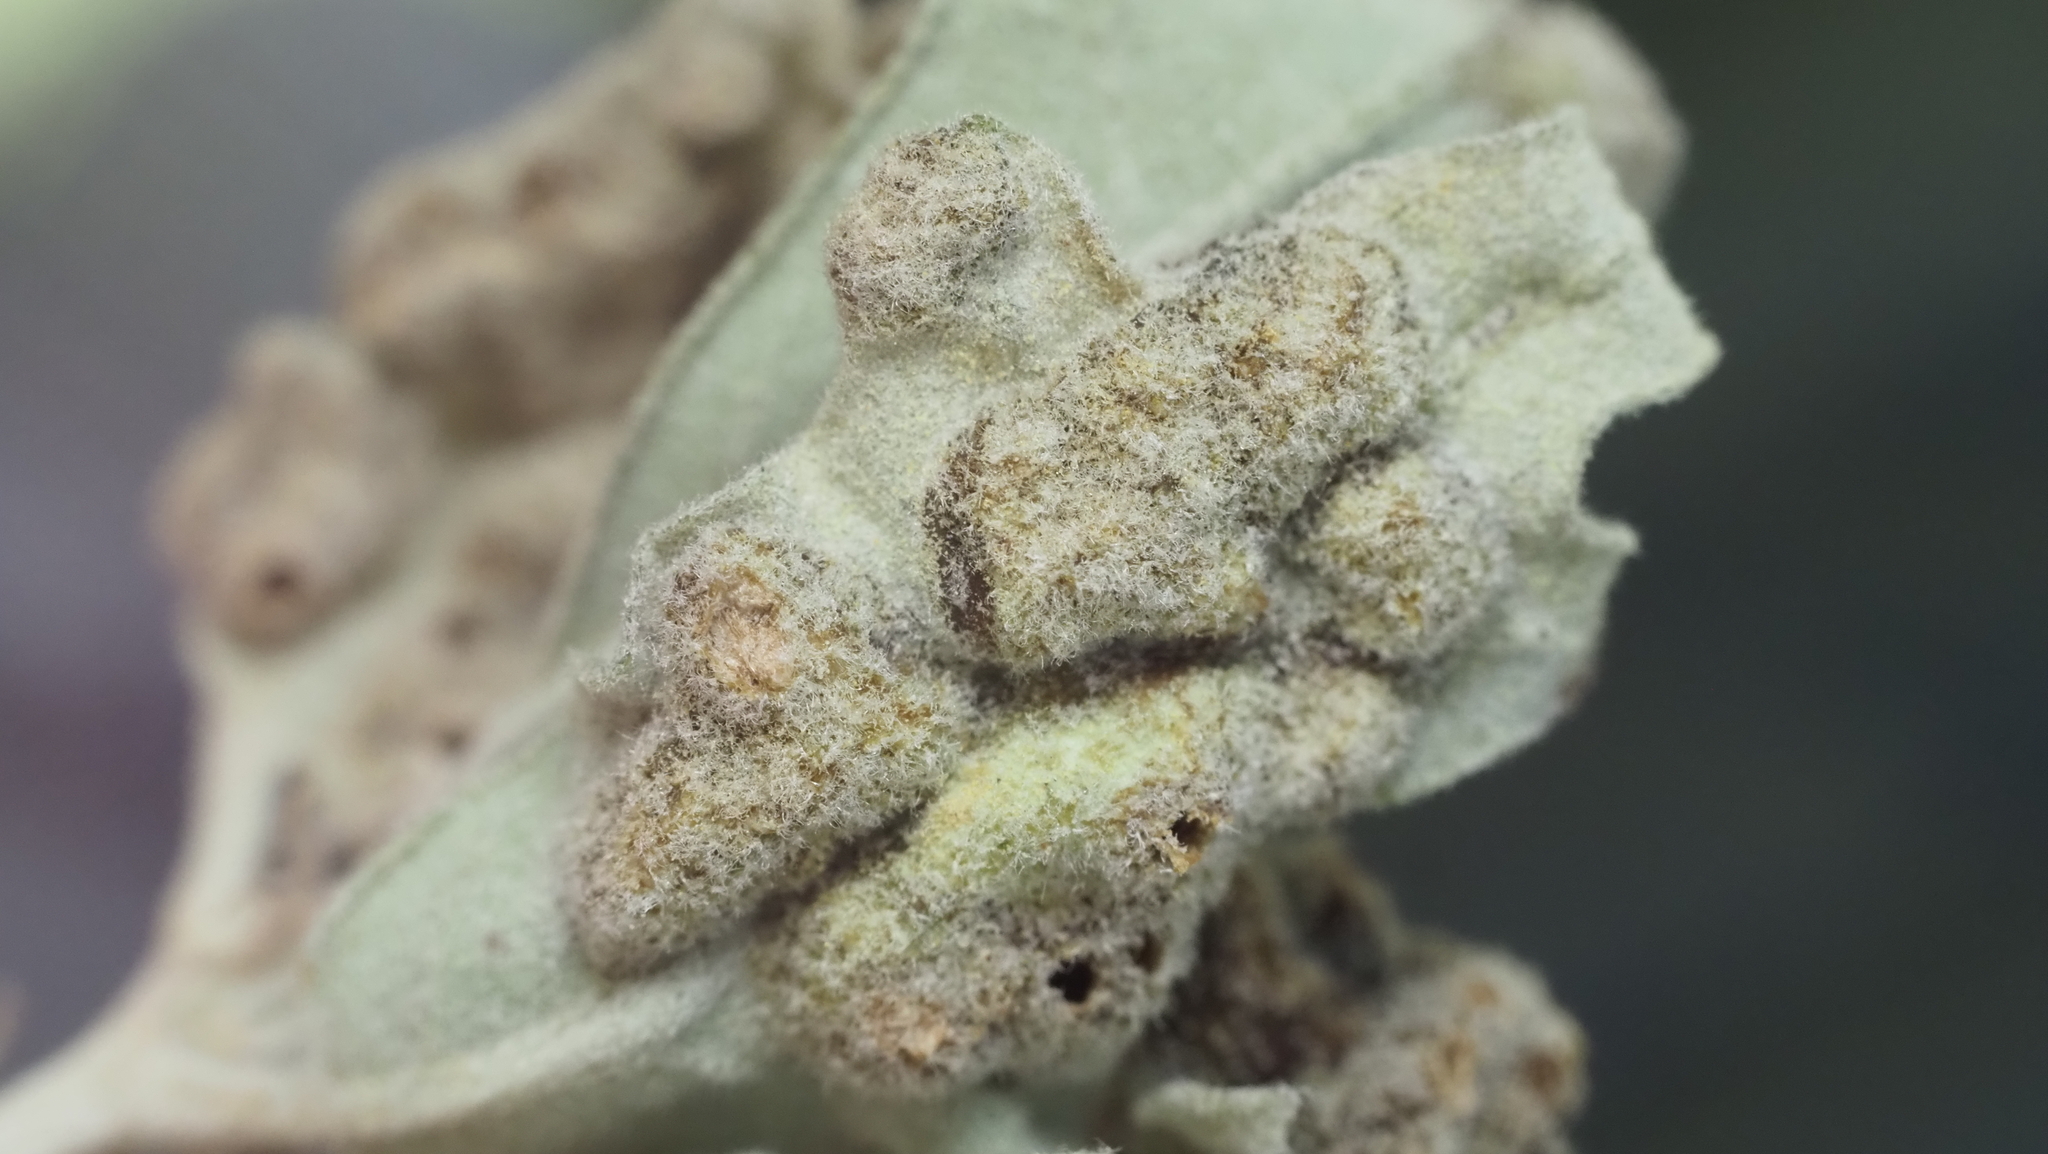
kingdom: Animalia
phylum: Arthropoda
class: Insecta
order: Hymenoptera
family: Cynipidae
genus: Neuroterus
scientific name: Neuroterus quercusirregularis
